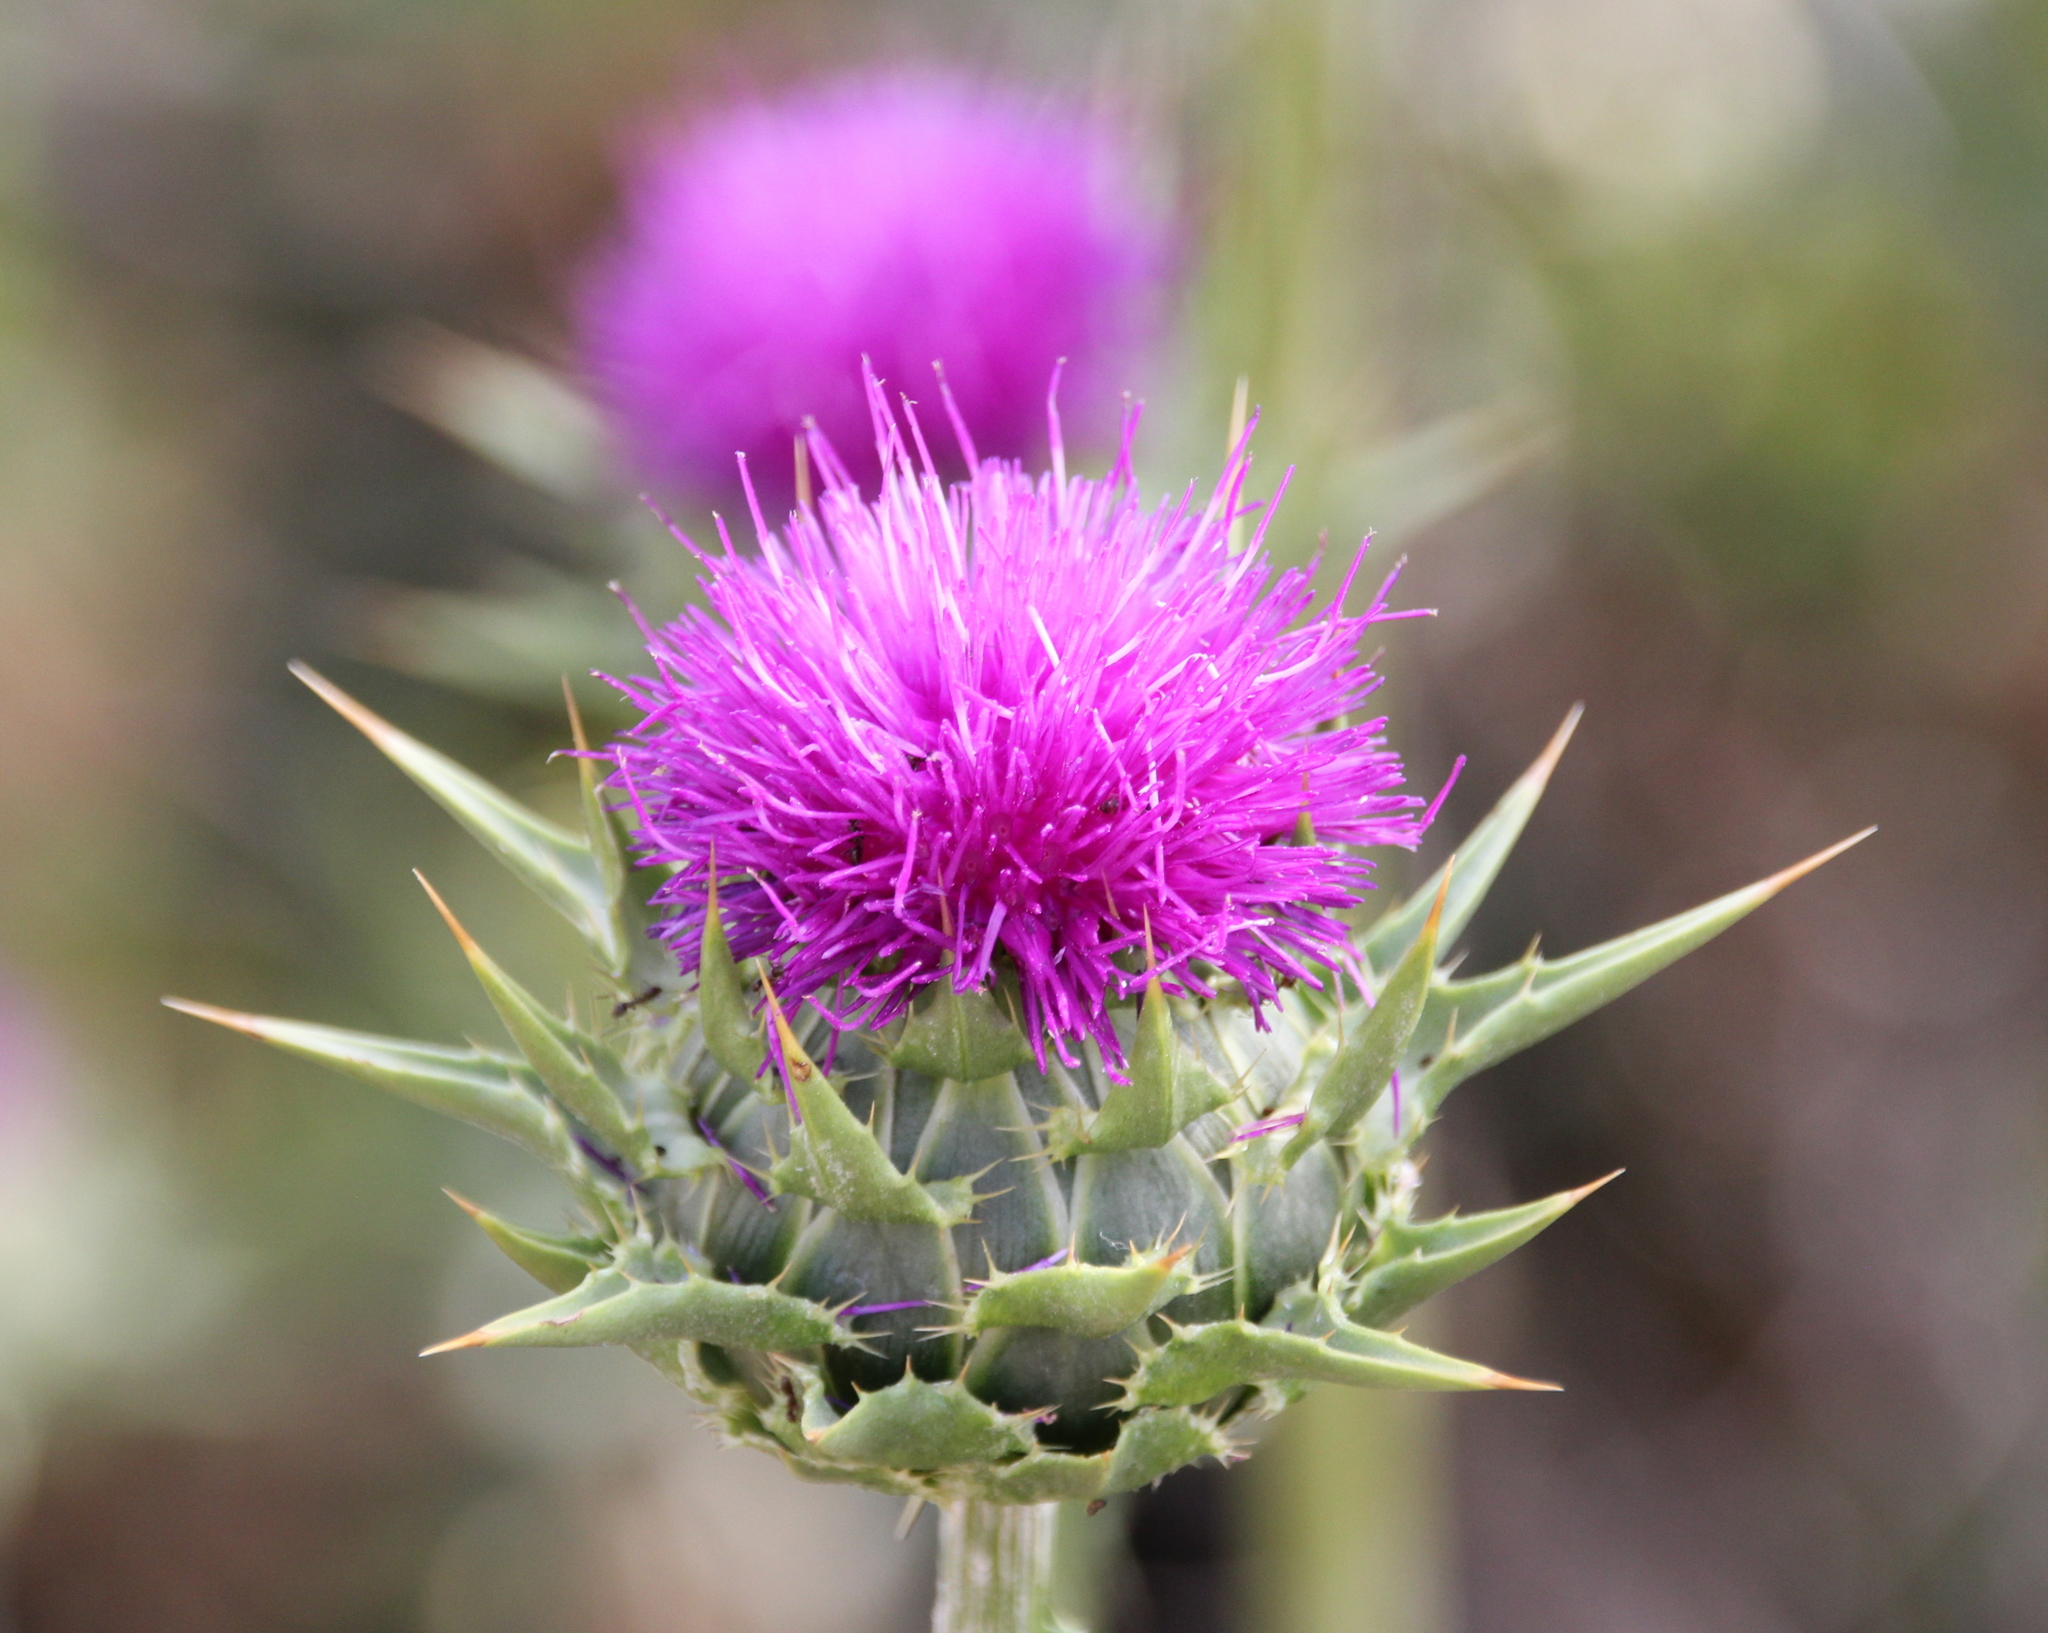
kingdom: Plantae
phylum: Tracheophyta
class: Magnoliopsida
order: Asterales
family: Asteraceae
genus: Silybum
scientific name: Silybum marianum
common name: Milk thistle
